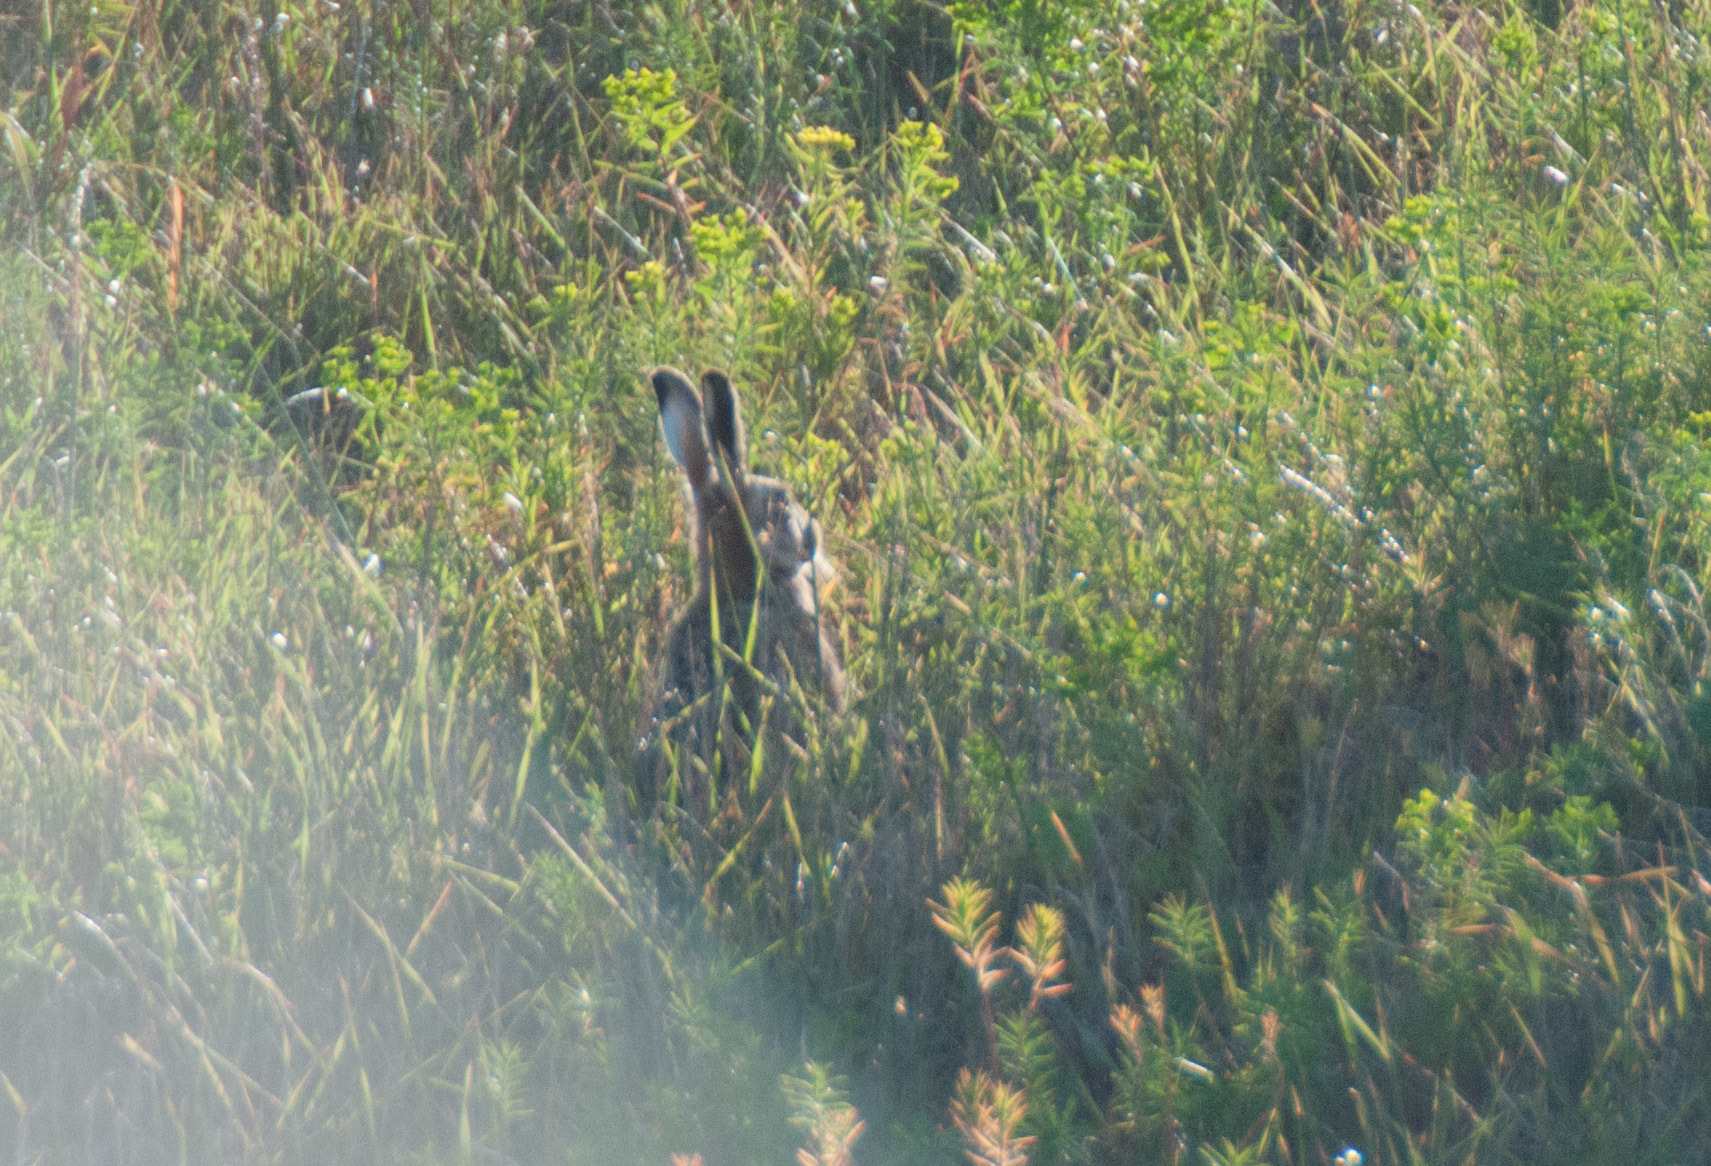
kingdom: Animalia
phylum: Chordata
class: Mammalia
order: Lagomorpha
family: Leporidae
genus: Lepus
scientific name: Lepus europaeus
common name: European hare
